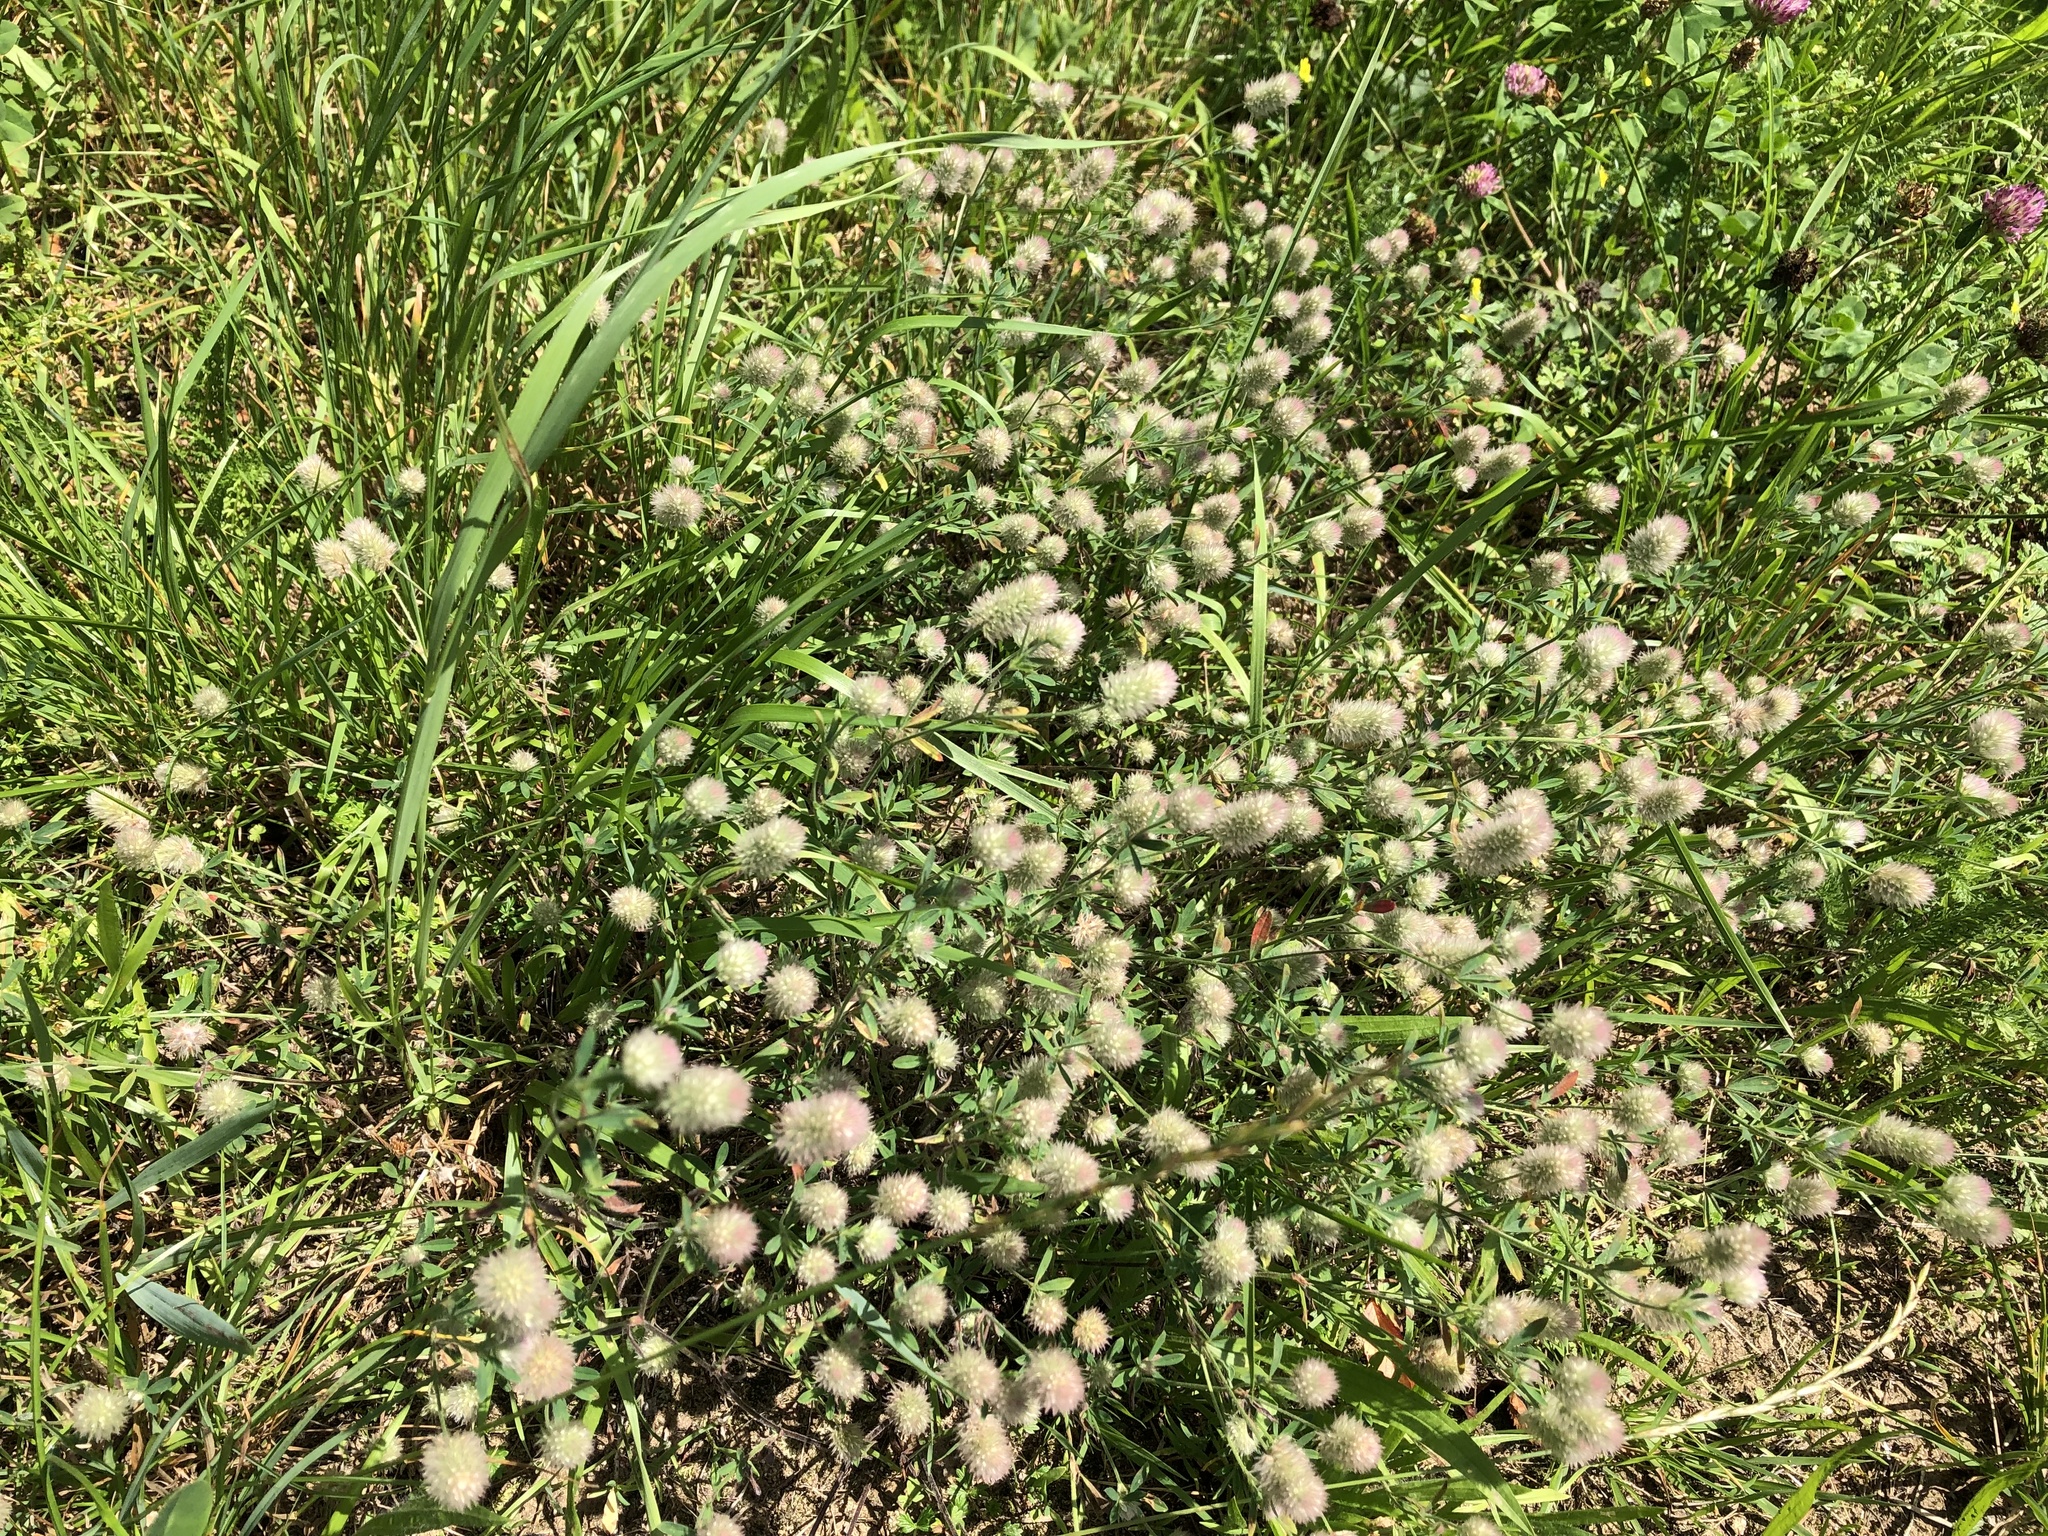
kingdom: Plantae
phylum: Tracheophyta
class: Magnoliopsida
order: Fabales
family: Fabaceae
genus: Trifolium
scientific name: Trifolium arvense
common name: Hare's-foot clover
